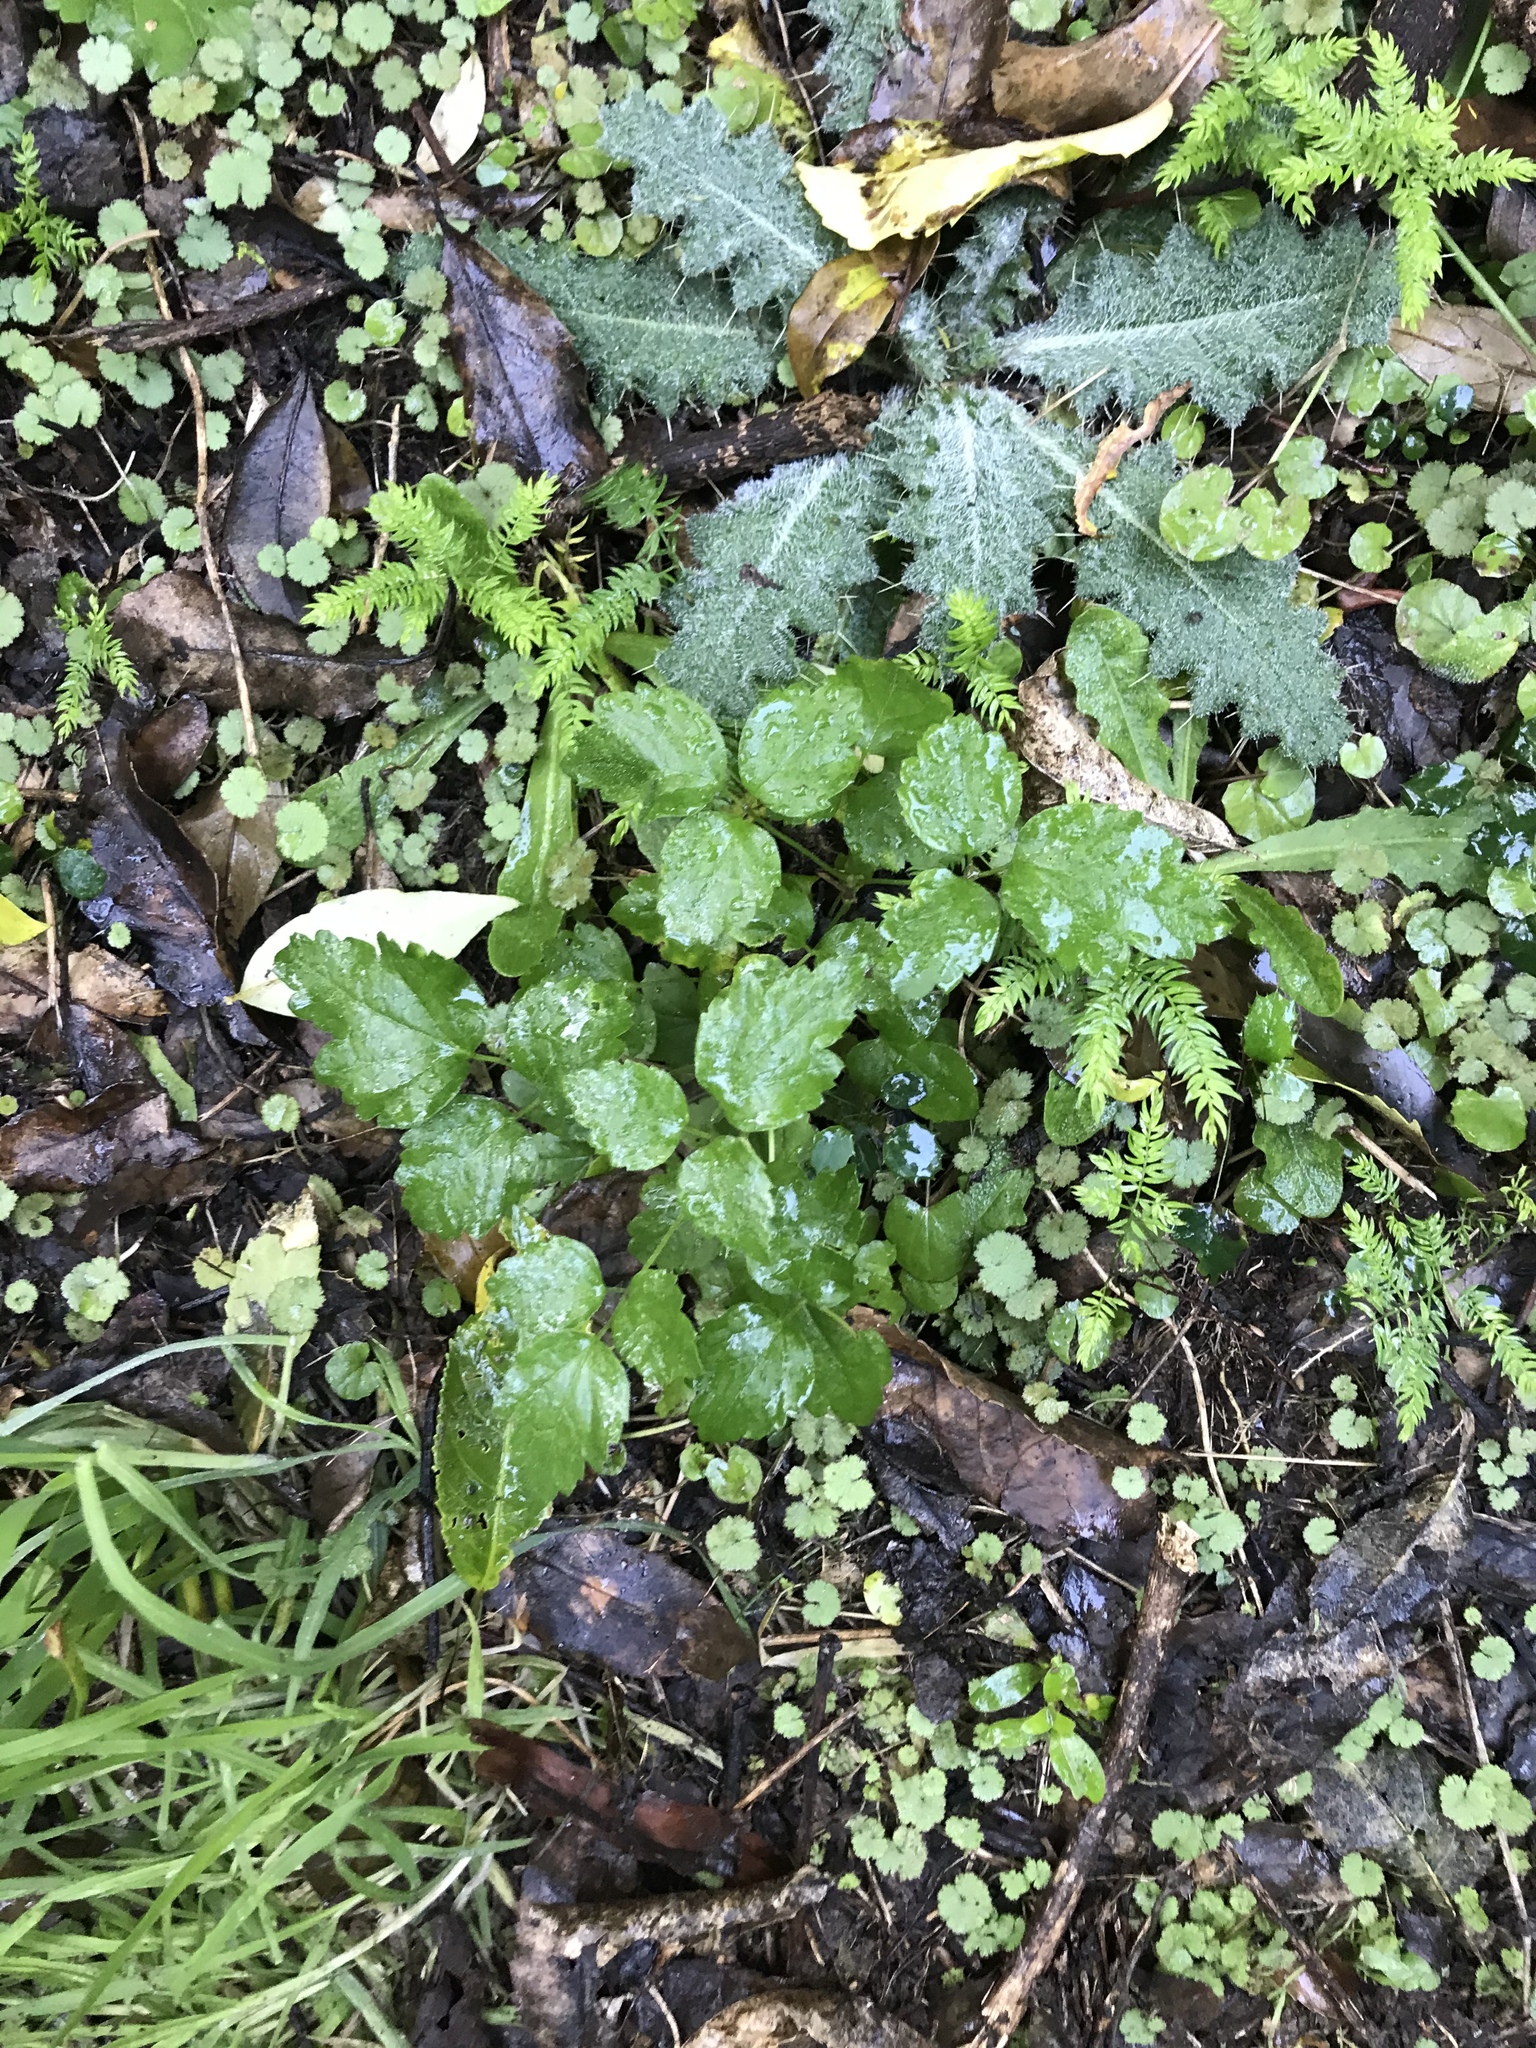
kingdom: Plantae
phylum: Tracheophyta
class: Magnoliopsida
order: Ranunculales
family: Ranunculaceae
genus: Clematis
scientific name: Clematis vitalba
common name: Evergreen clematis
